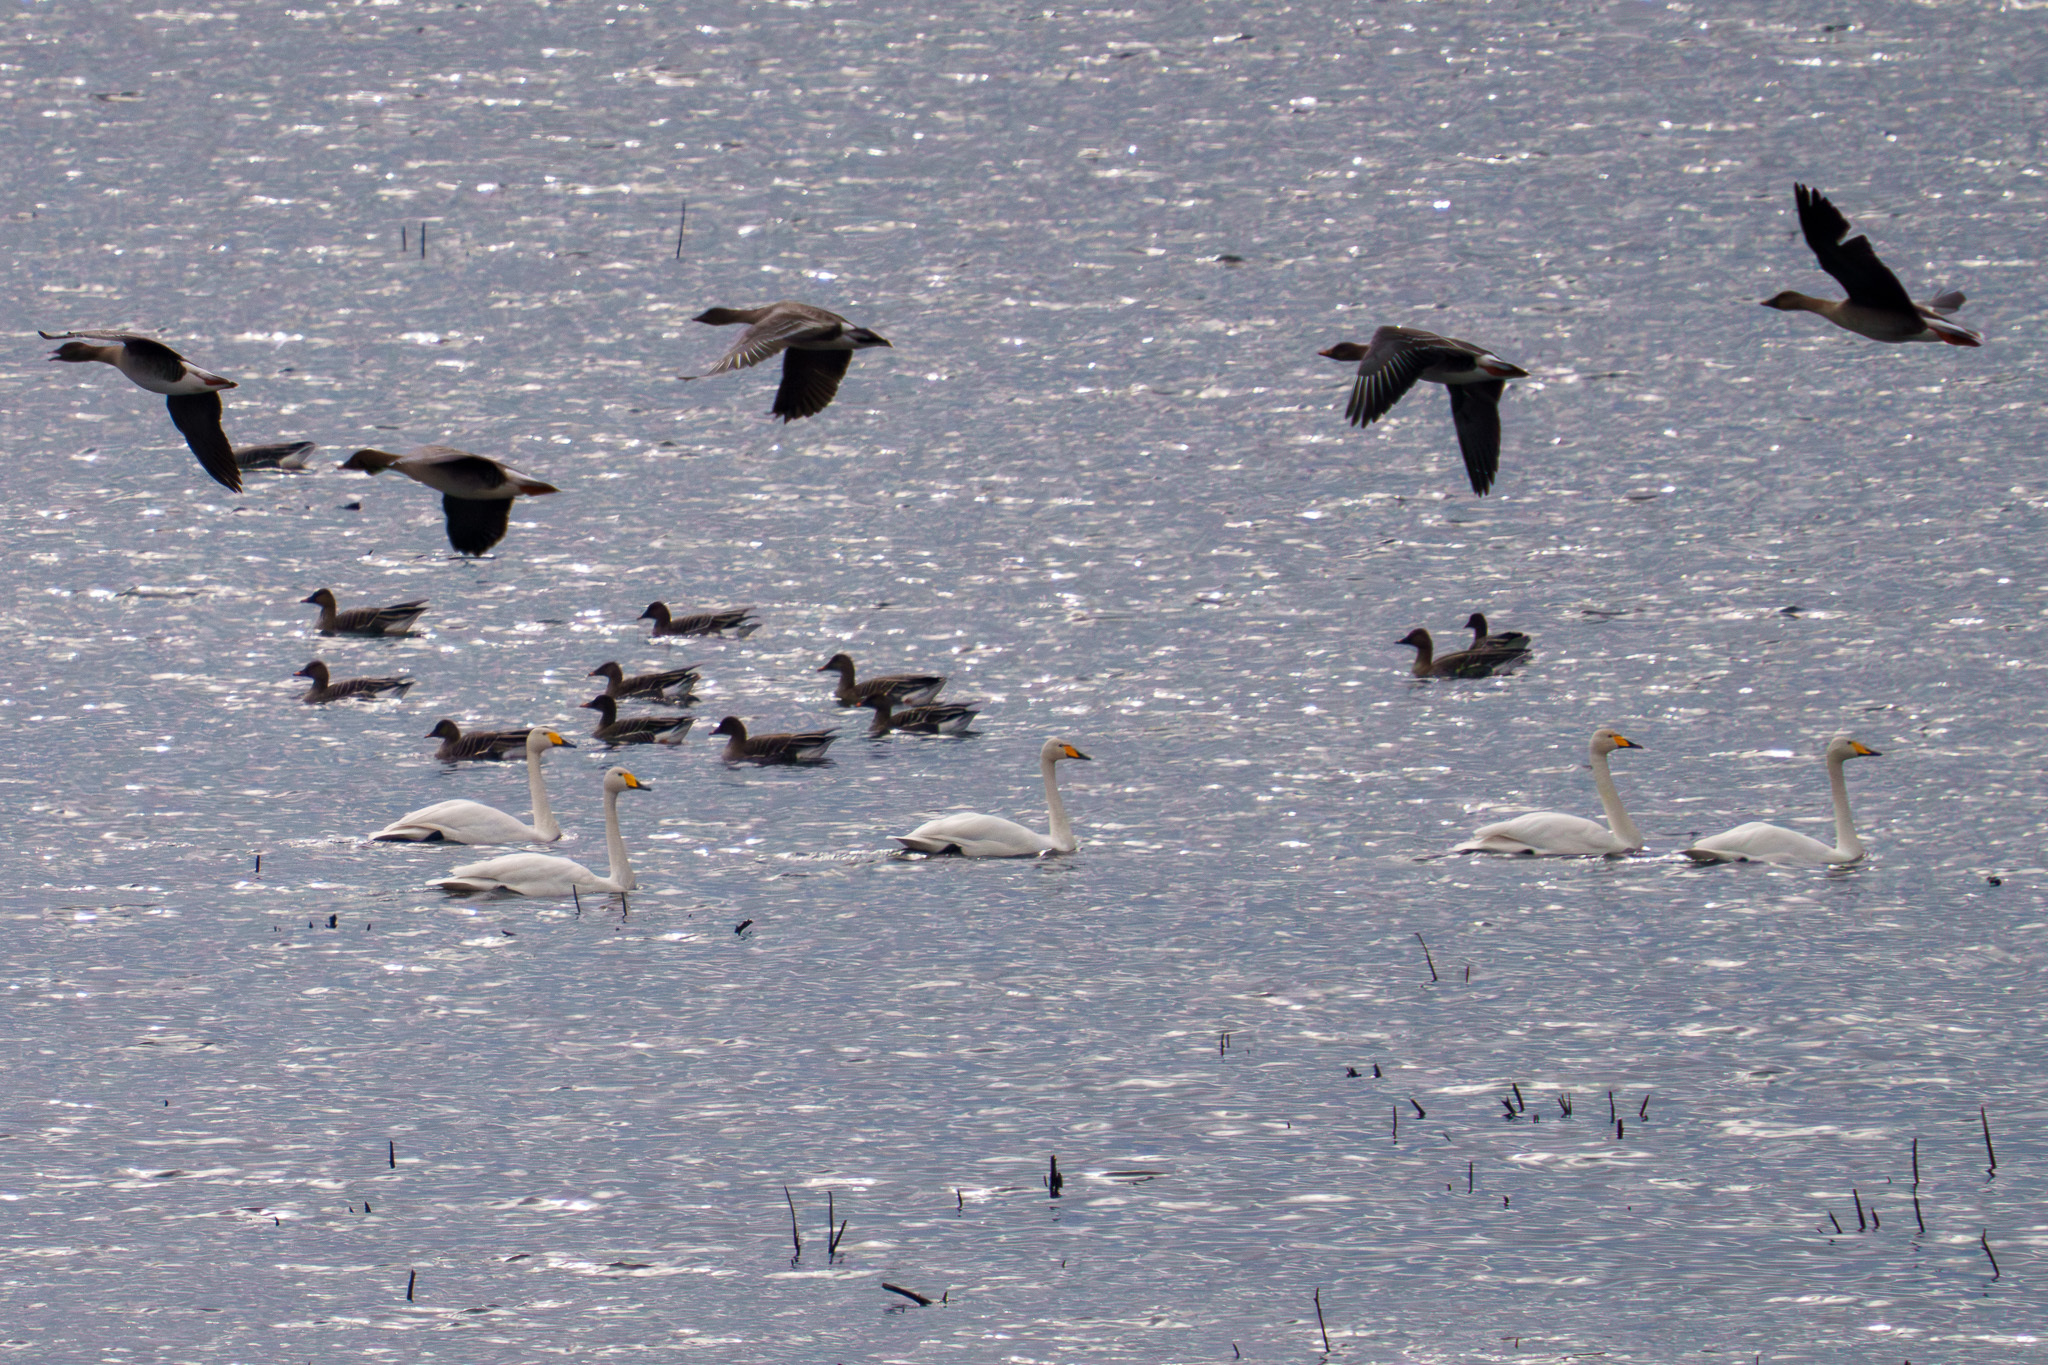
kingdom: Animalia
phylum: Chordata
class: Aves
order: Anseriformes
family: Anatidae
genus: Cygnus
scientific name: Cygnus cygnus
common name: Whooper swan
